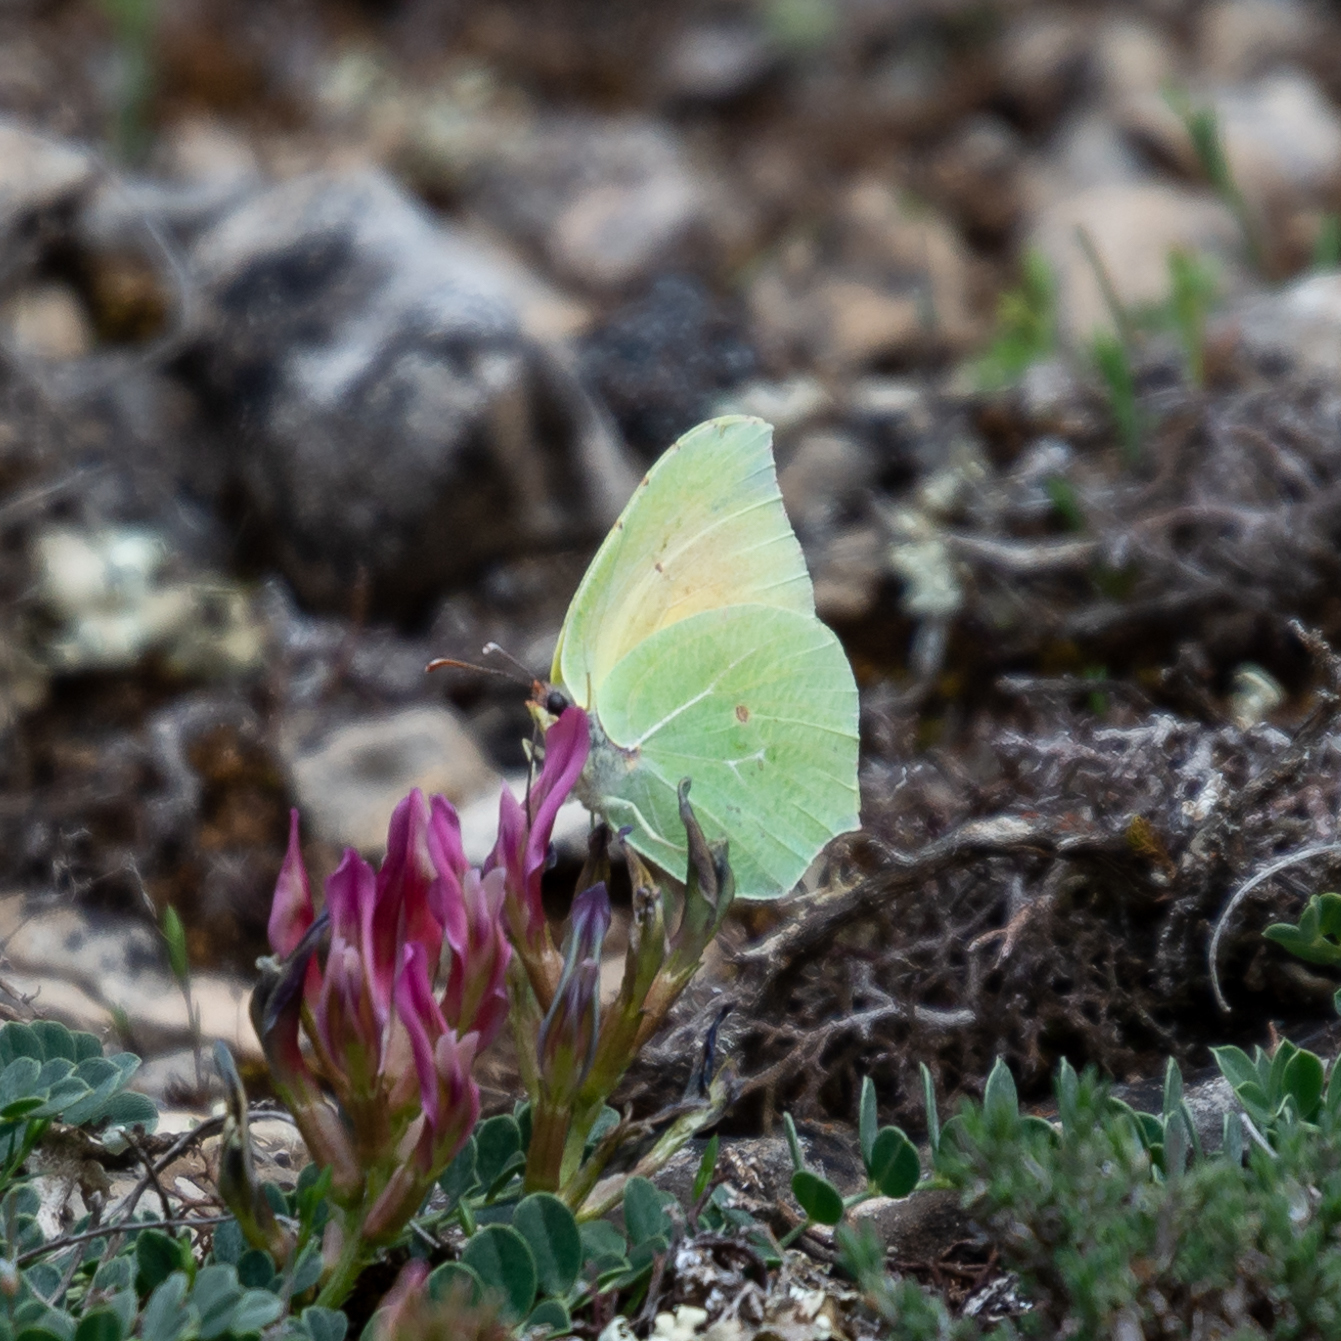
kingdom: Animalia
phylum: Arthropoda
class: Insecta
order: Lepidoptera
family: Pieridae
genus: Gonepteryx
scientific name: Gonepteryx cleopatra
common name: Cleopatra
